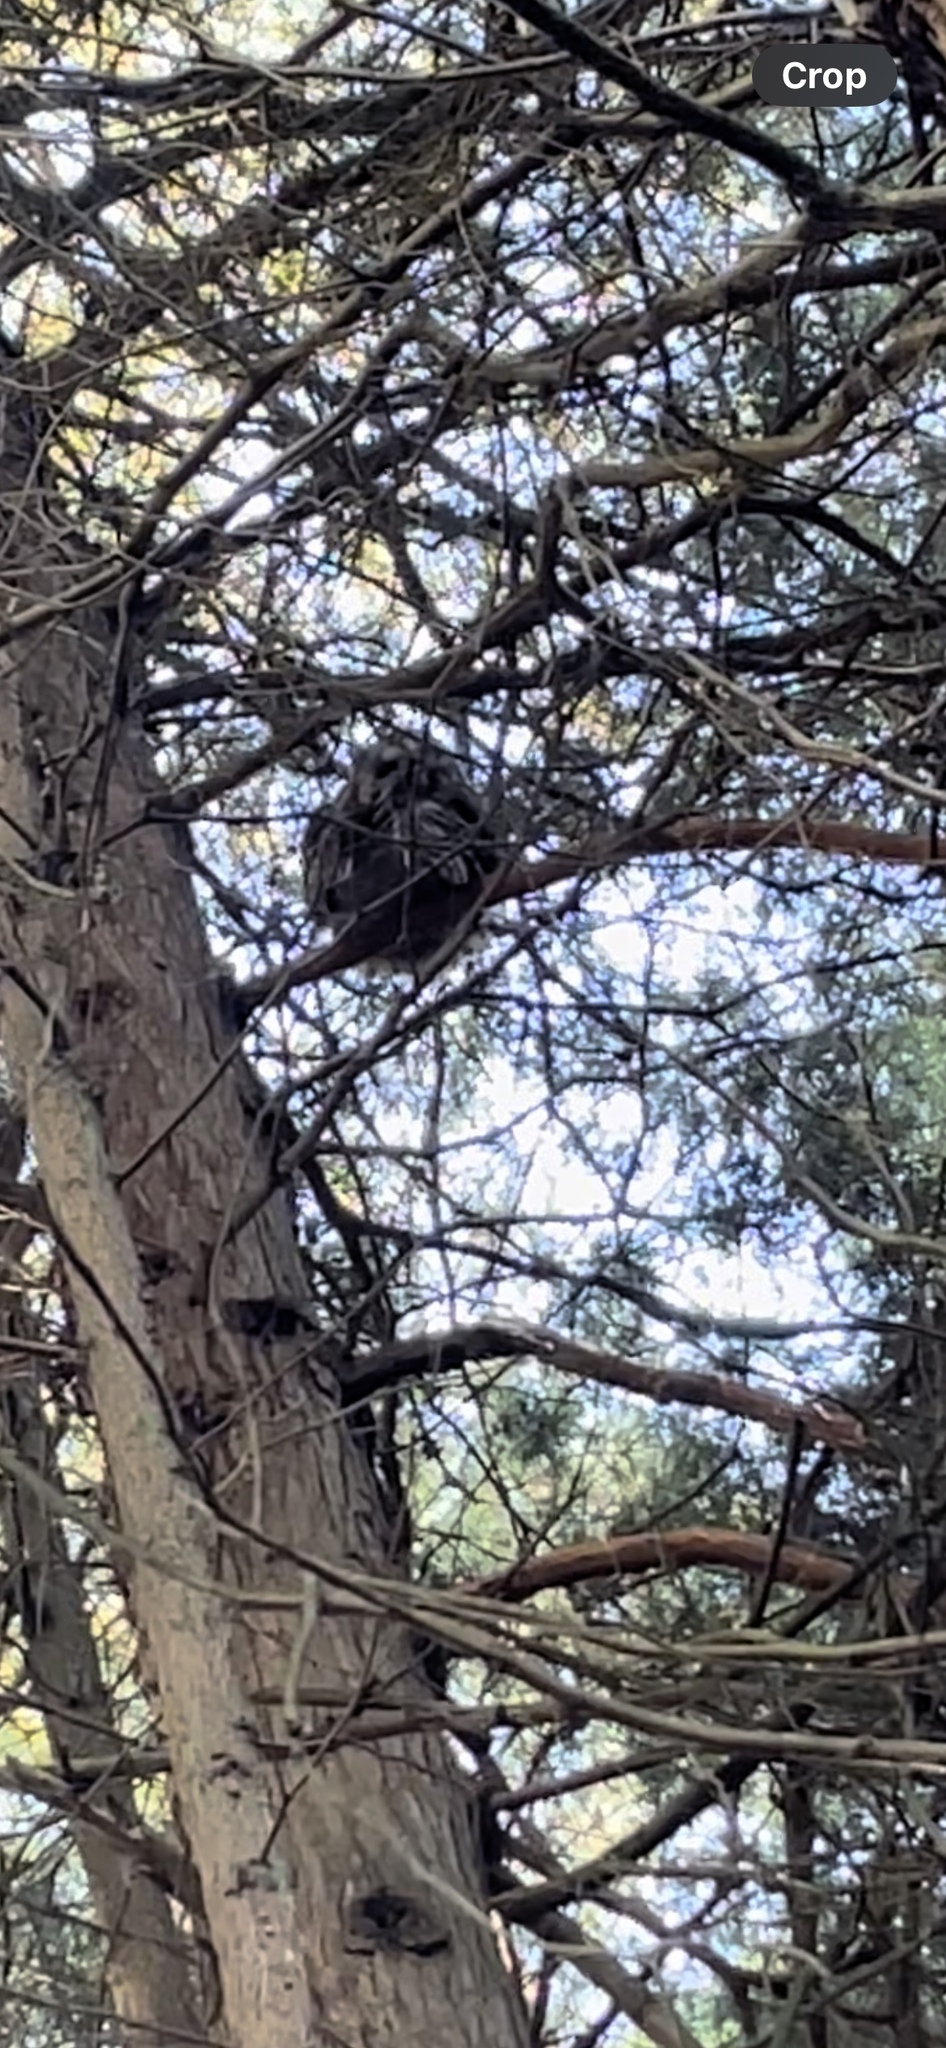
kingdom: Animalia
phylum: Chordata
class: Aves
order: Strigiformes
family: Strigidae
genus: Strix
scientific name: Strix varia
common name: Barred owl
